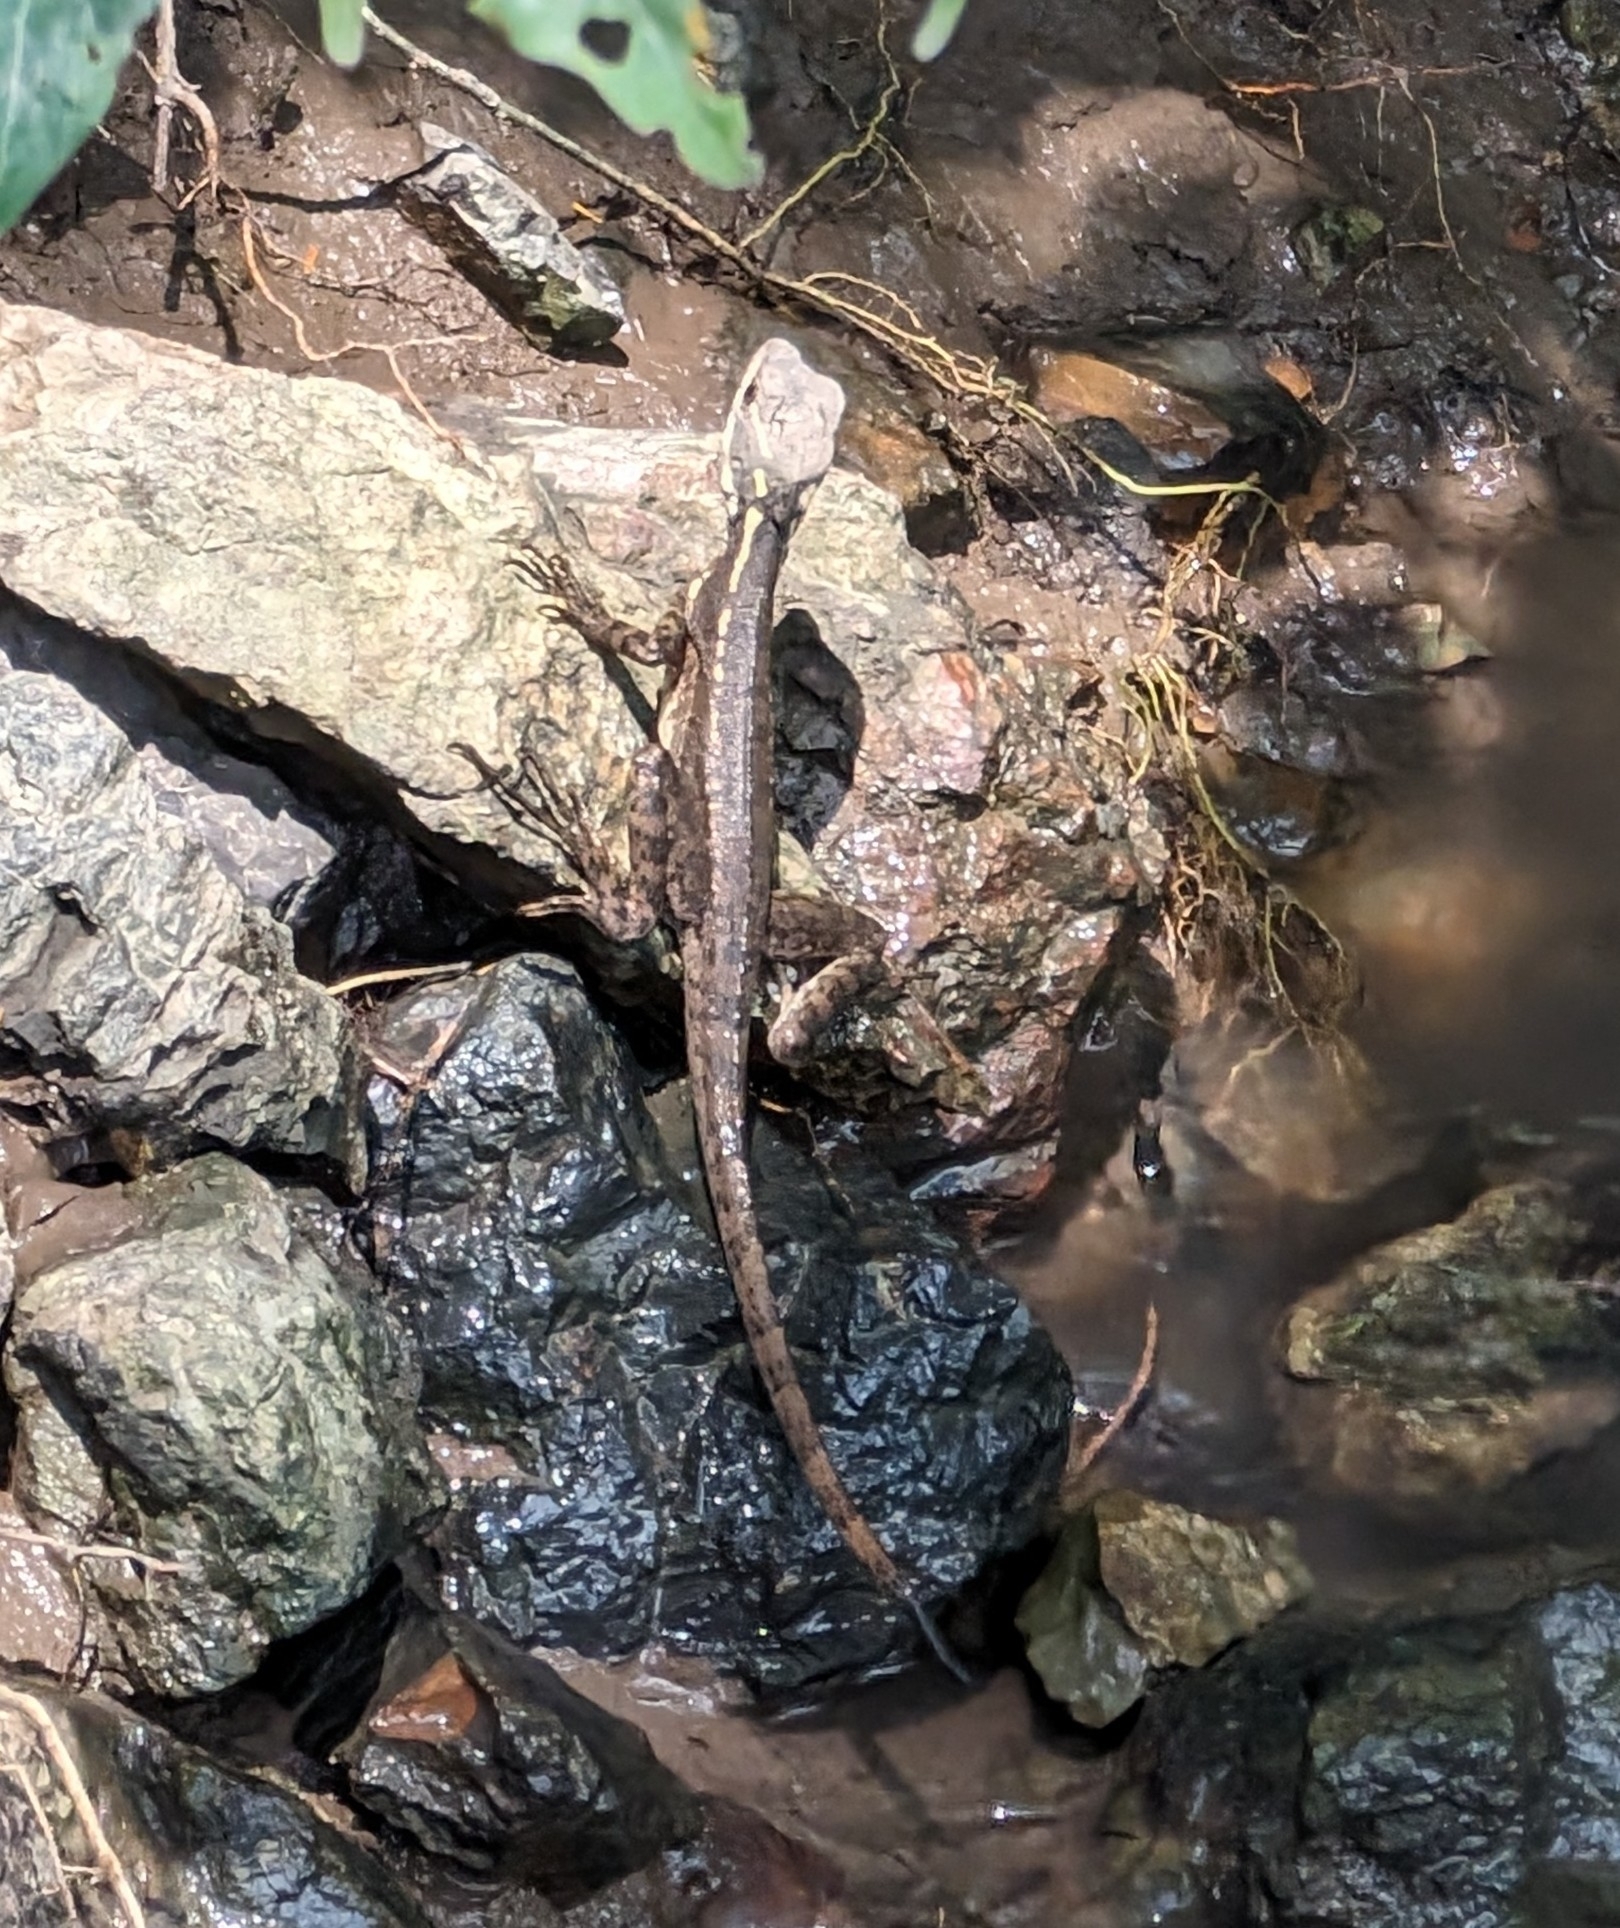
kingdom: Animalia
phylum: Chordata
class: Squamata
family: Corytophanidae
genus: Basiliscus
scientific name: Basiliscus basiliscus
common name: Common basilisk
